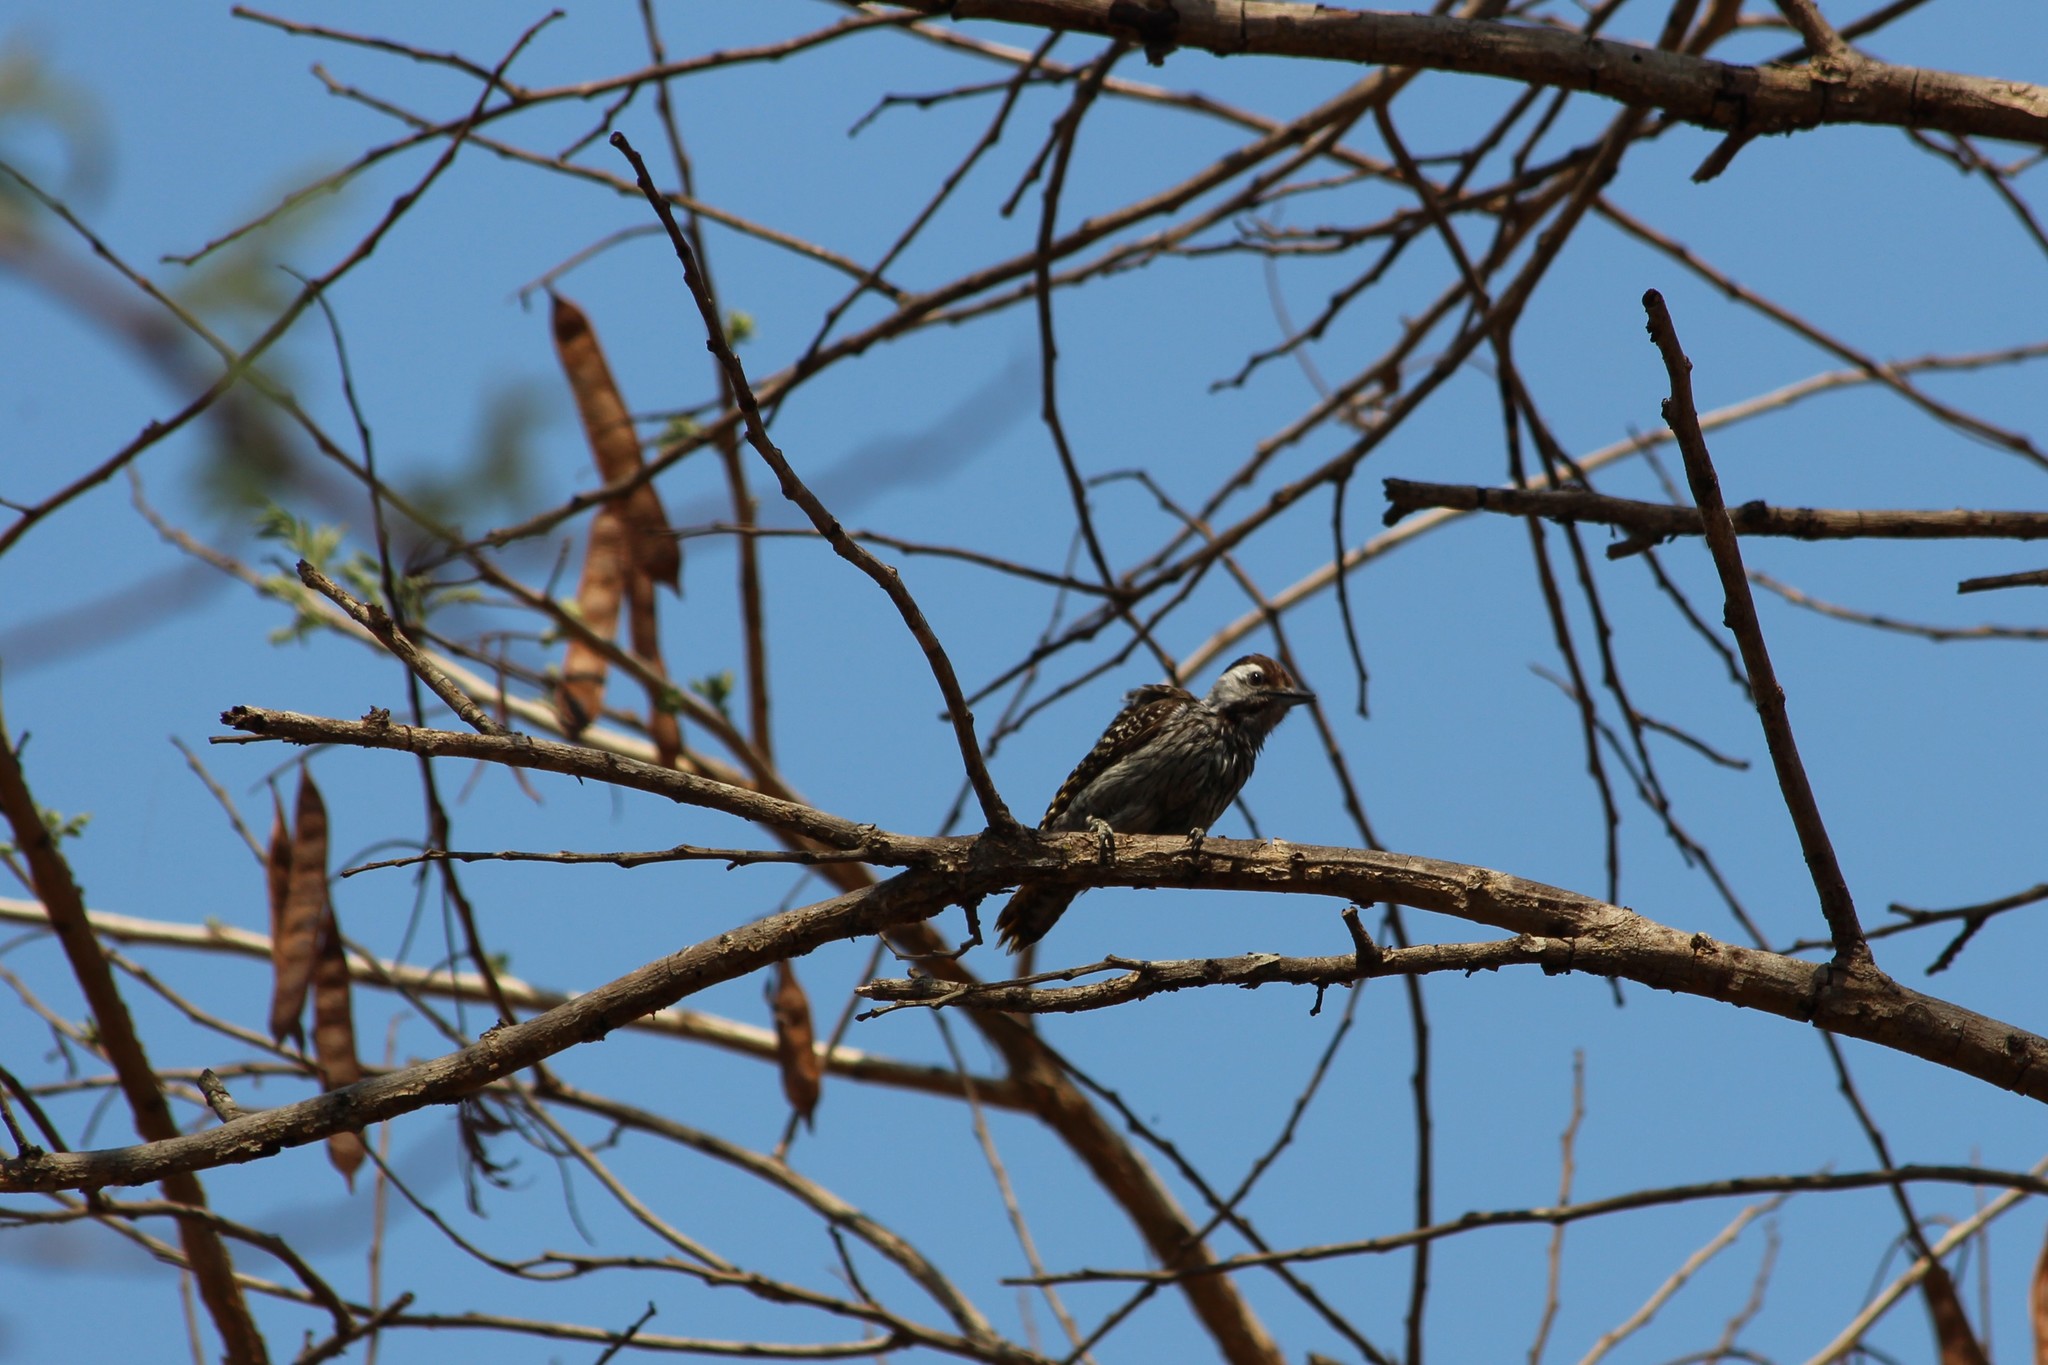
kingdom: Animalia
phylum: Chordata
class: Aves
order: Piciformes
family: Picidae
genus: Dendropicos
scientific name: Dendropicos fuscescens
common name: Cardinal woodpecker
